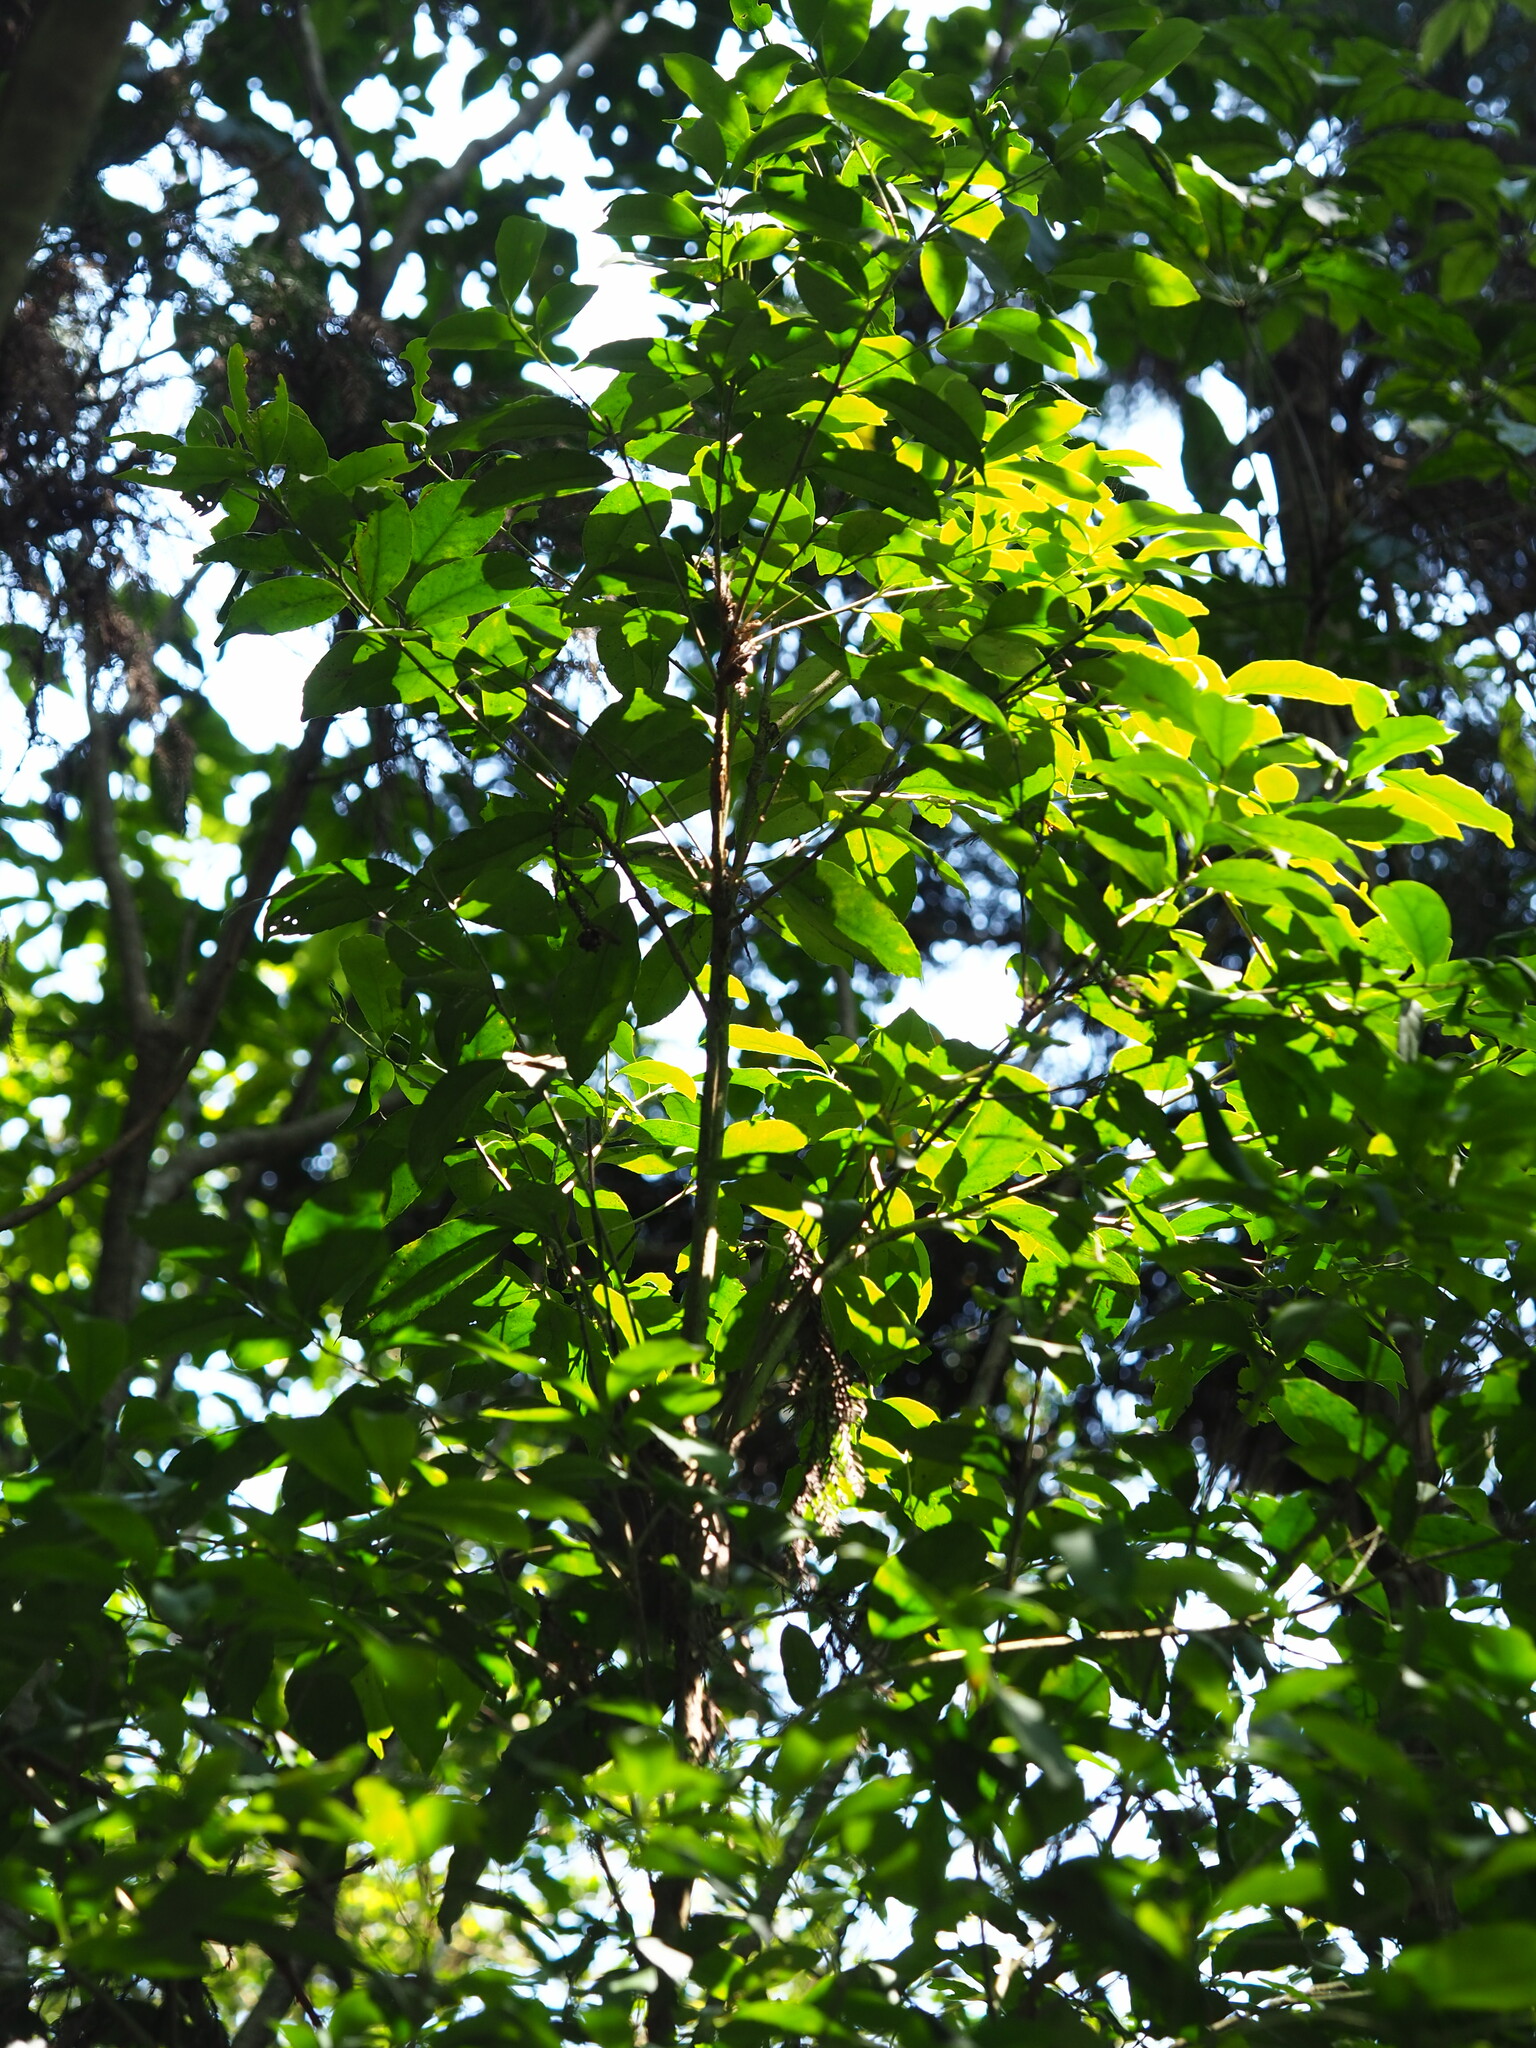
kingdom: Plantae
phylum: Tracheophyta
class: Magnoliopsida
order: Aquifoliales
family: Aquifoliaceae
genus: Ilex
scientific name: Ilex formosana
